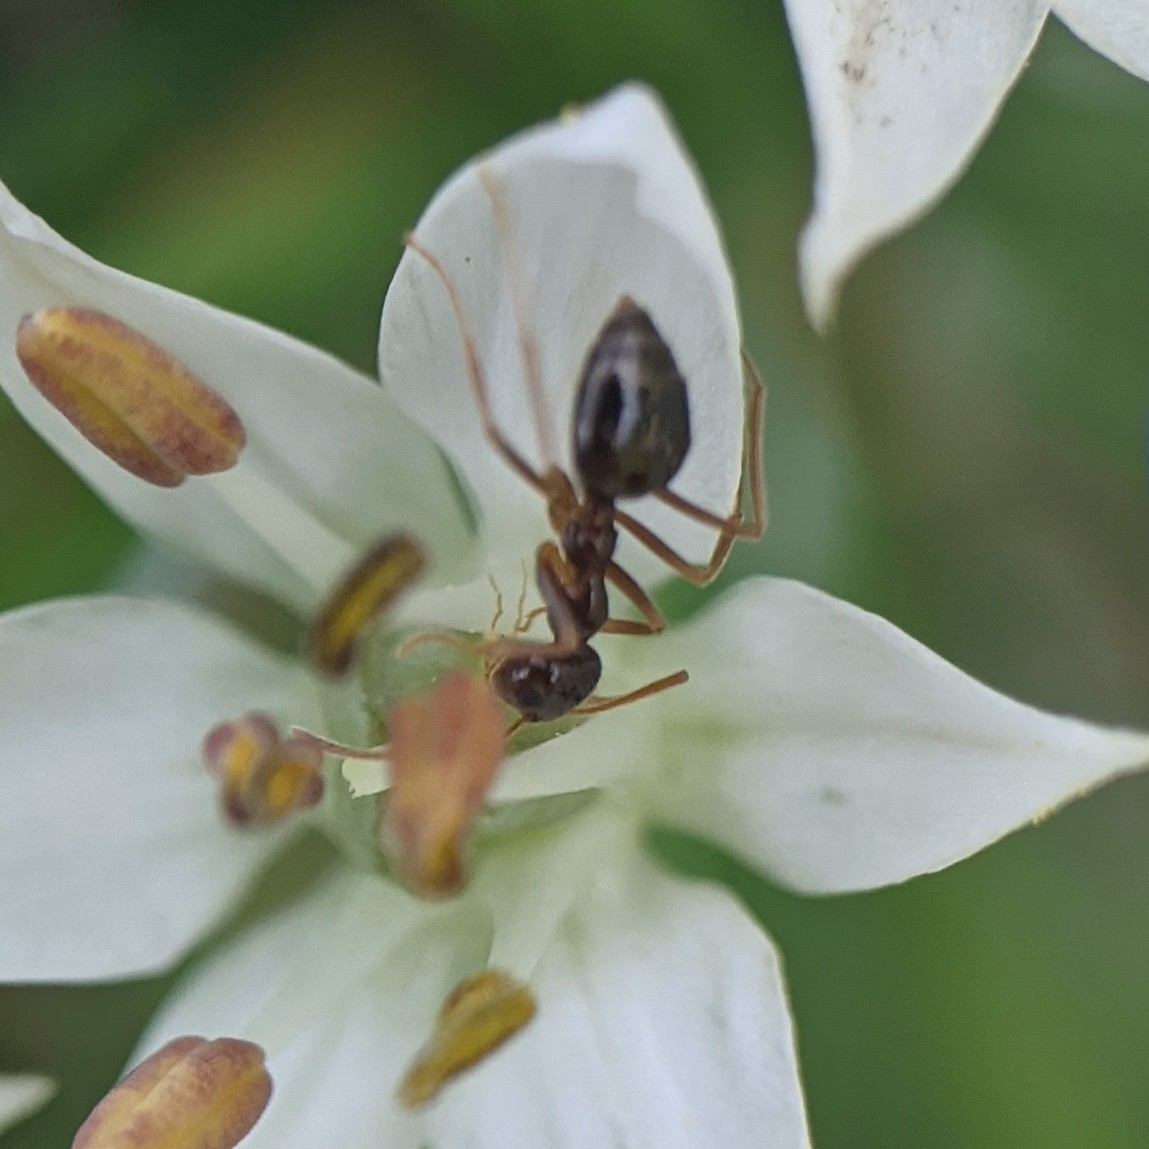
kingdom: Animalia
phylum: Arthropoda
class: Insecta
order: Hymenoptera
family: Formicidae
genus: Prenolepis
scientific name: Prenolepis imparis
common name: Small honey ant
